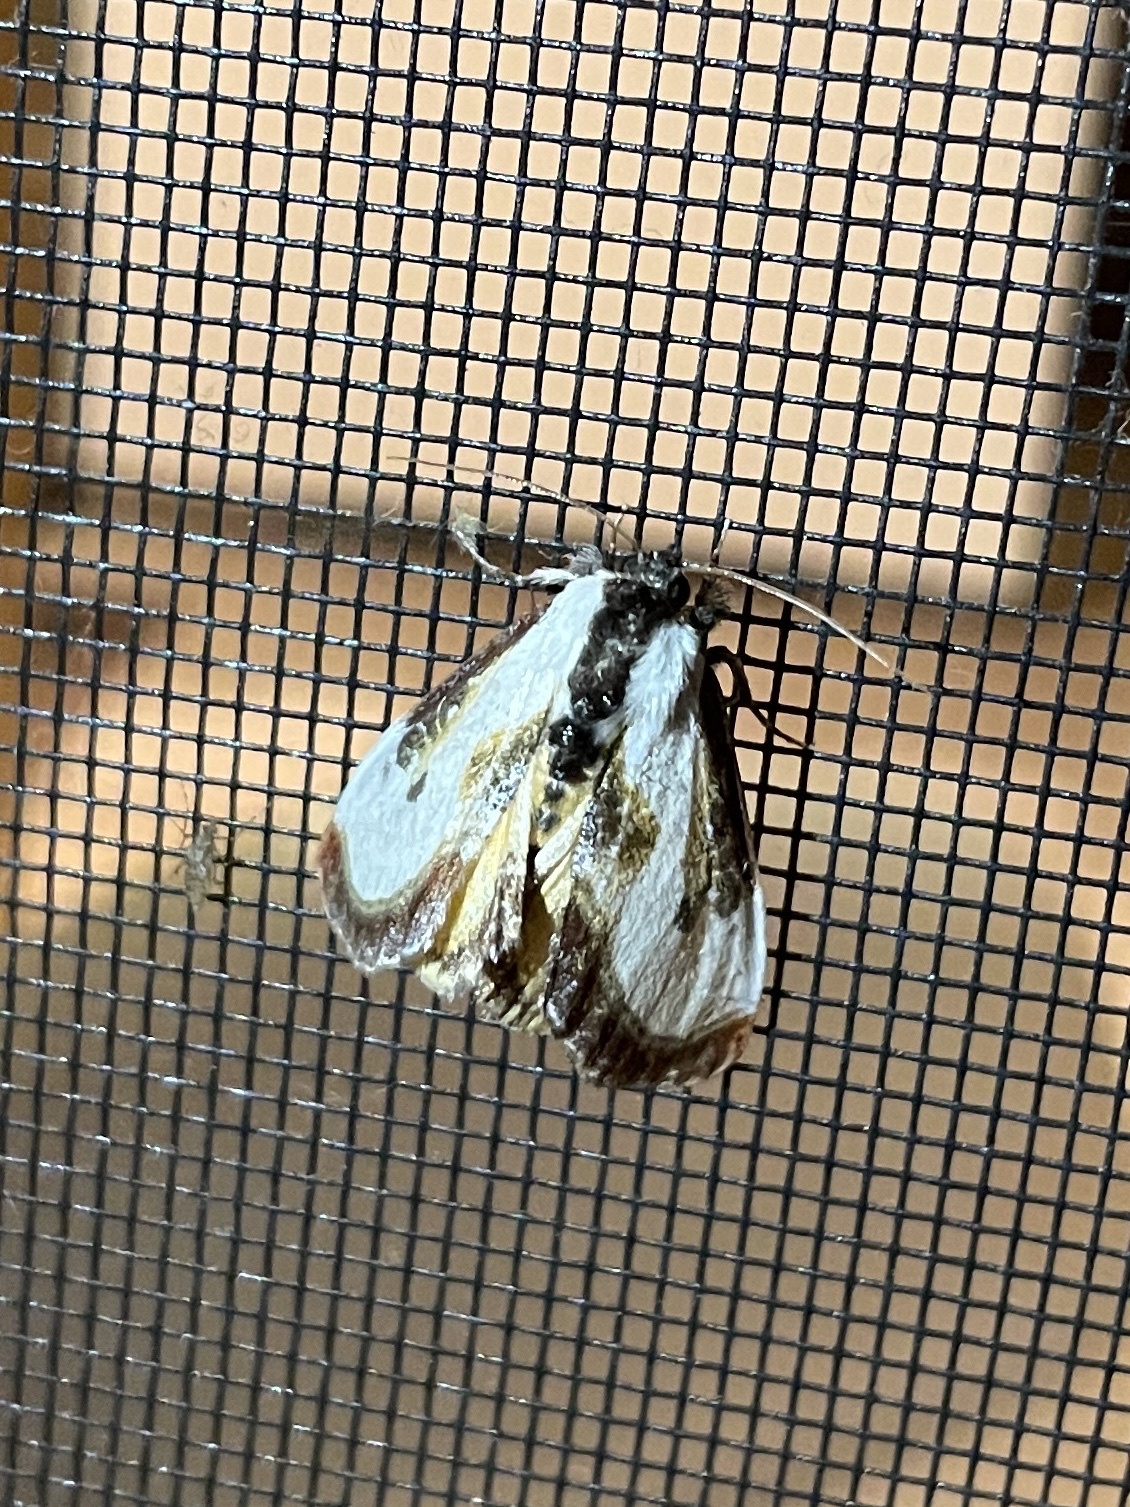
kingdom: Animalia
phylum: Arthropoda
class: Insecta
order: Lepidoptera
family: Noctuidae
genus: Eudryas
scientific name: Eudryas grata
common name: Beautiful wood-nymph
